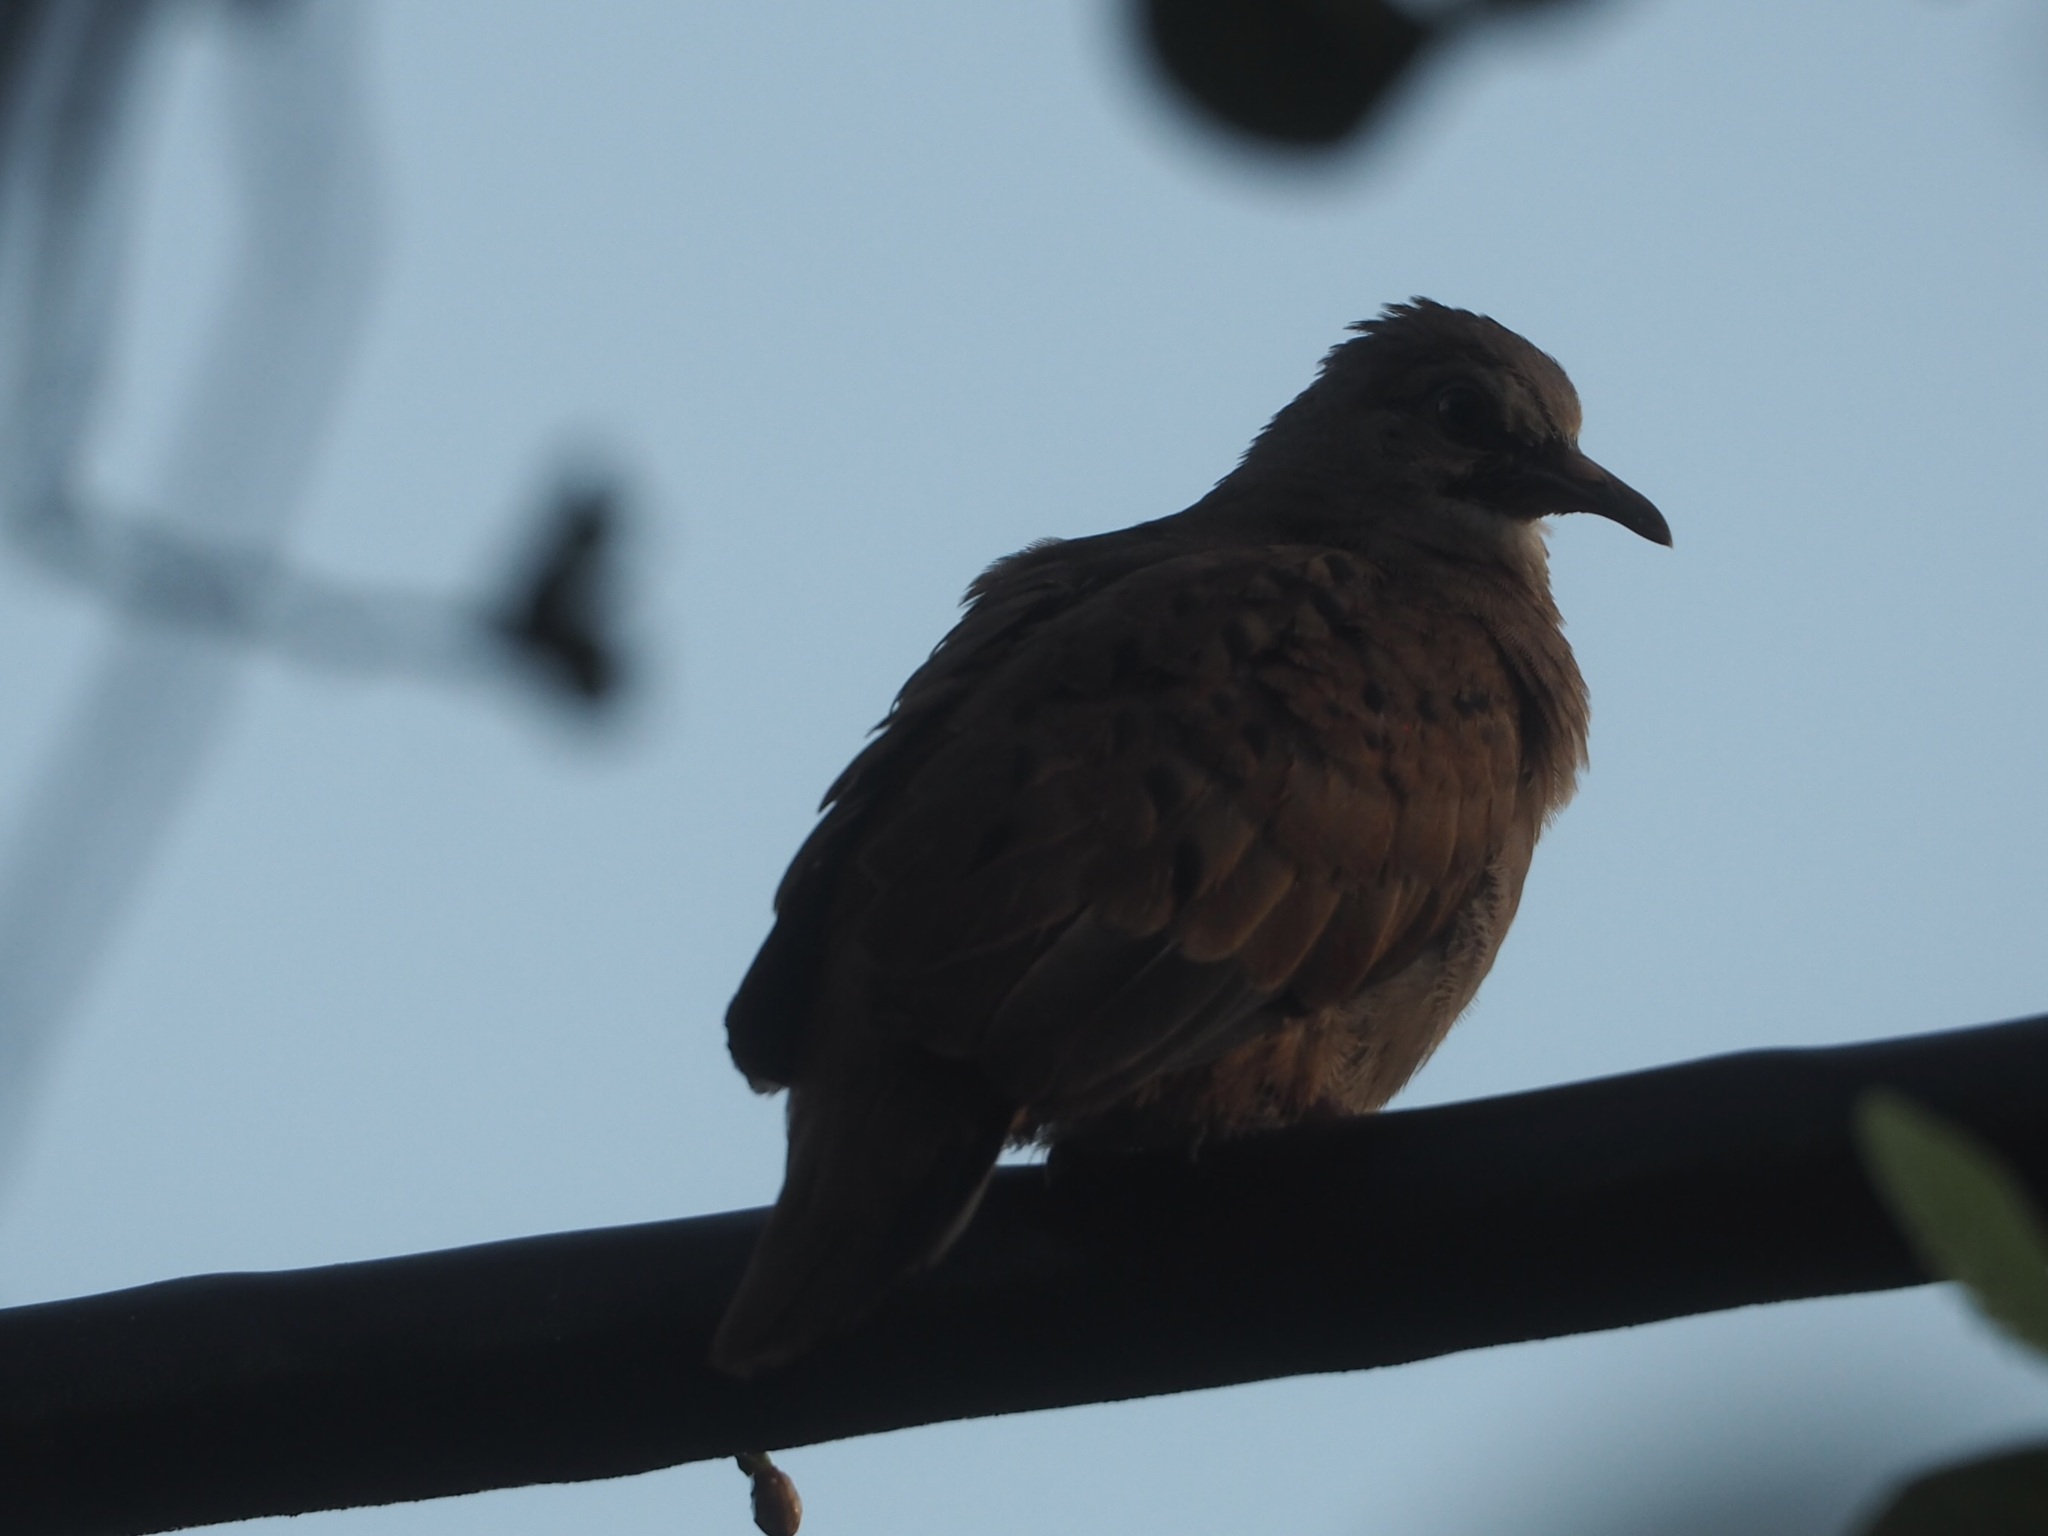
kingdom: Animalia
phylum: Chordata
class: Aves
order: Columbiformes
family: Columbidae
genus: Columbina
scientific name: Columbina talpacoti
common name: Ruddy ground dove
